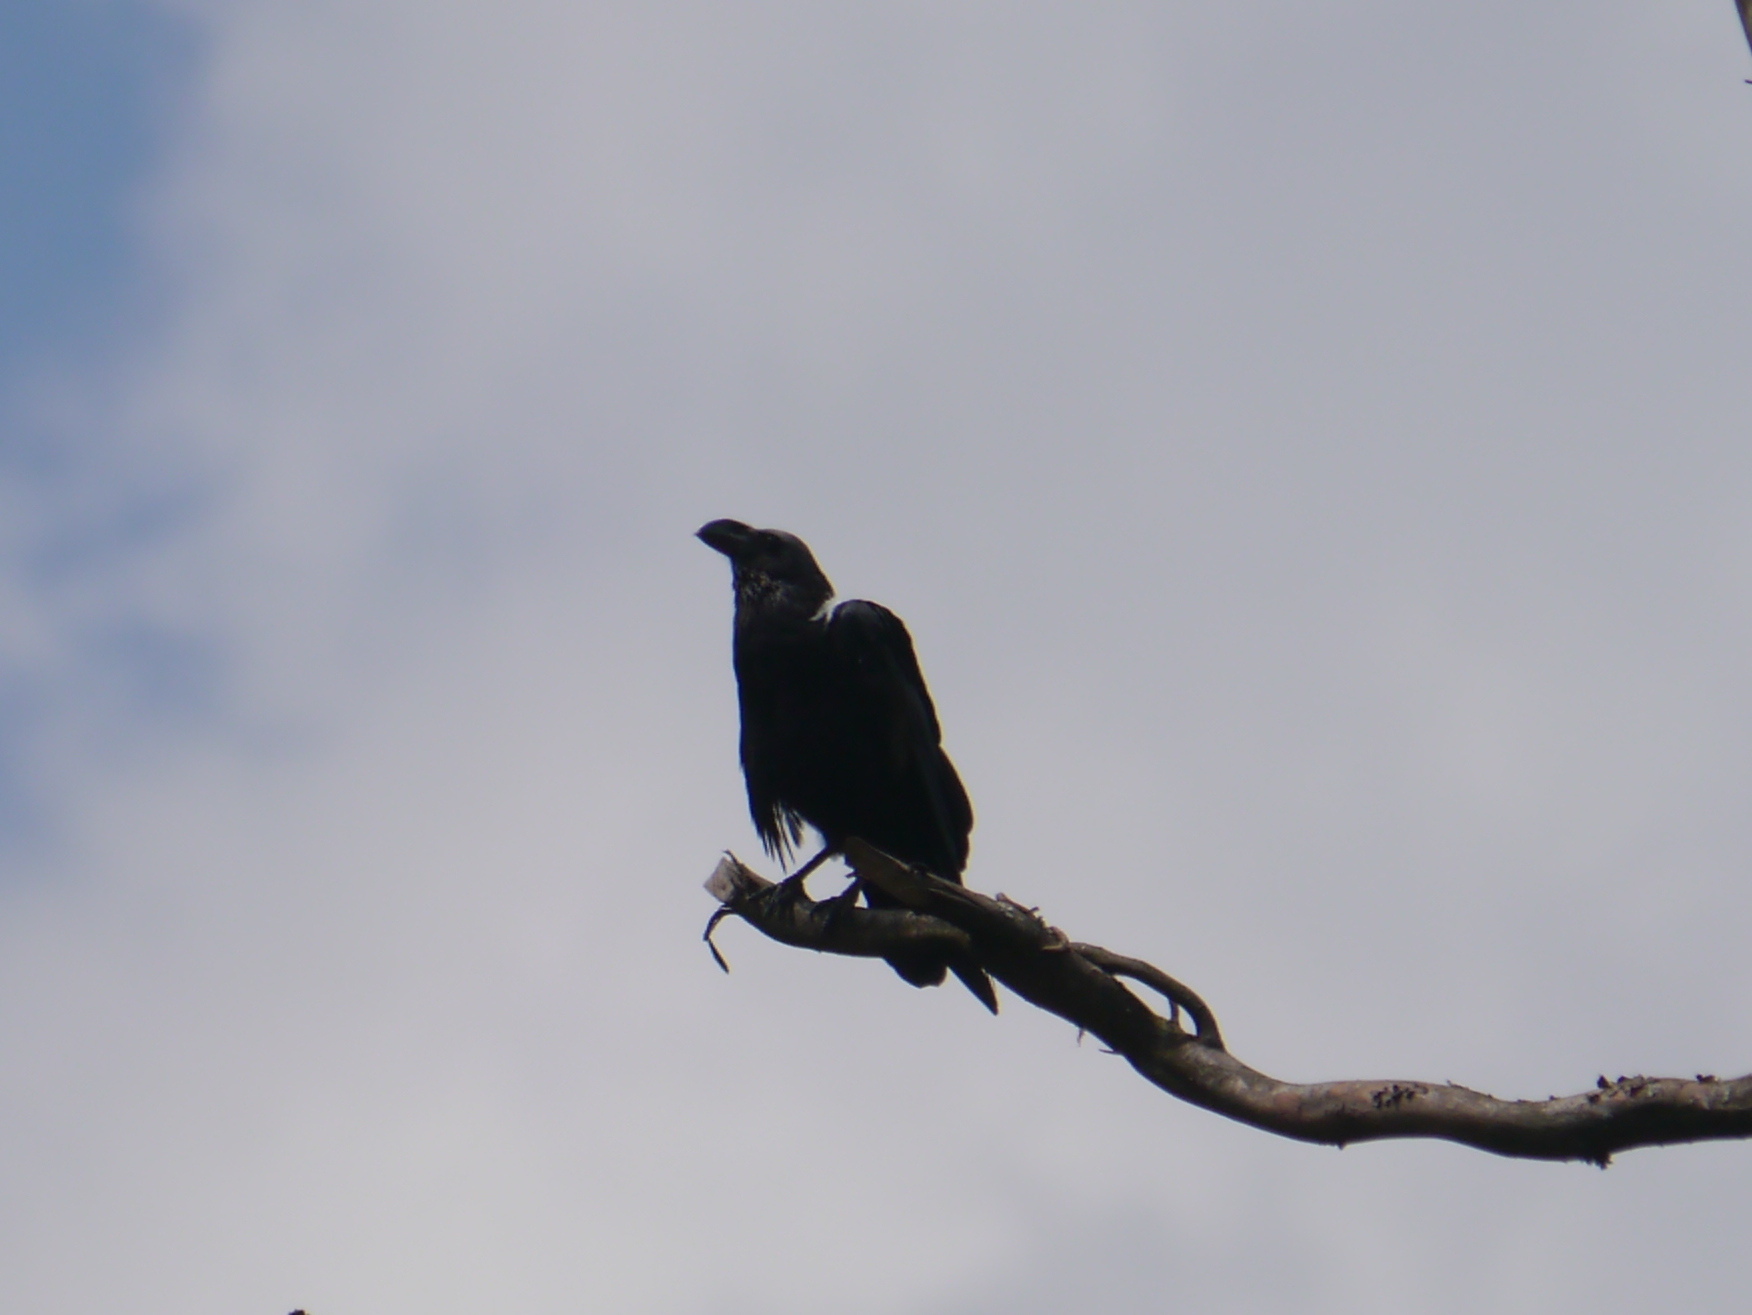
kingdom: Animalia
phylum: Chordata
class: Aves
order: Passeriformes
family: Corvidae
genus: Corvus
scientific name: Corvus albicollis
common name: White-necked raven
